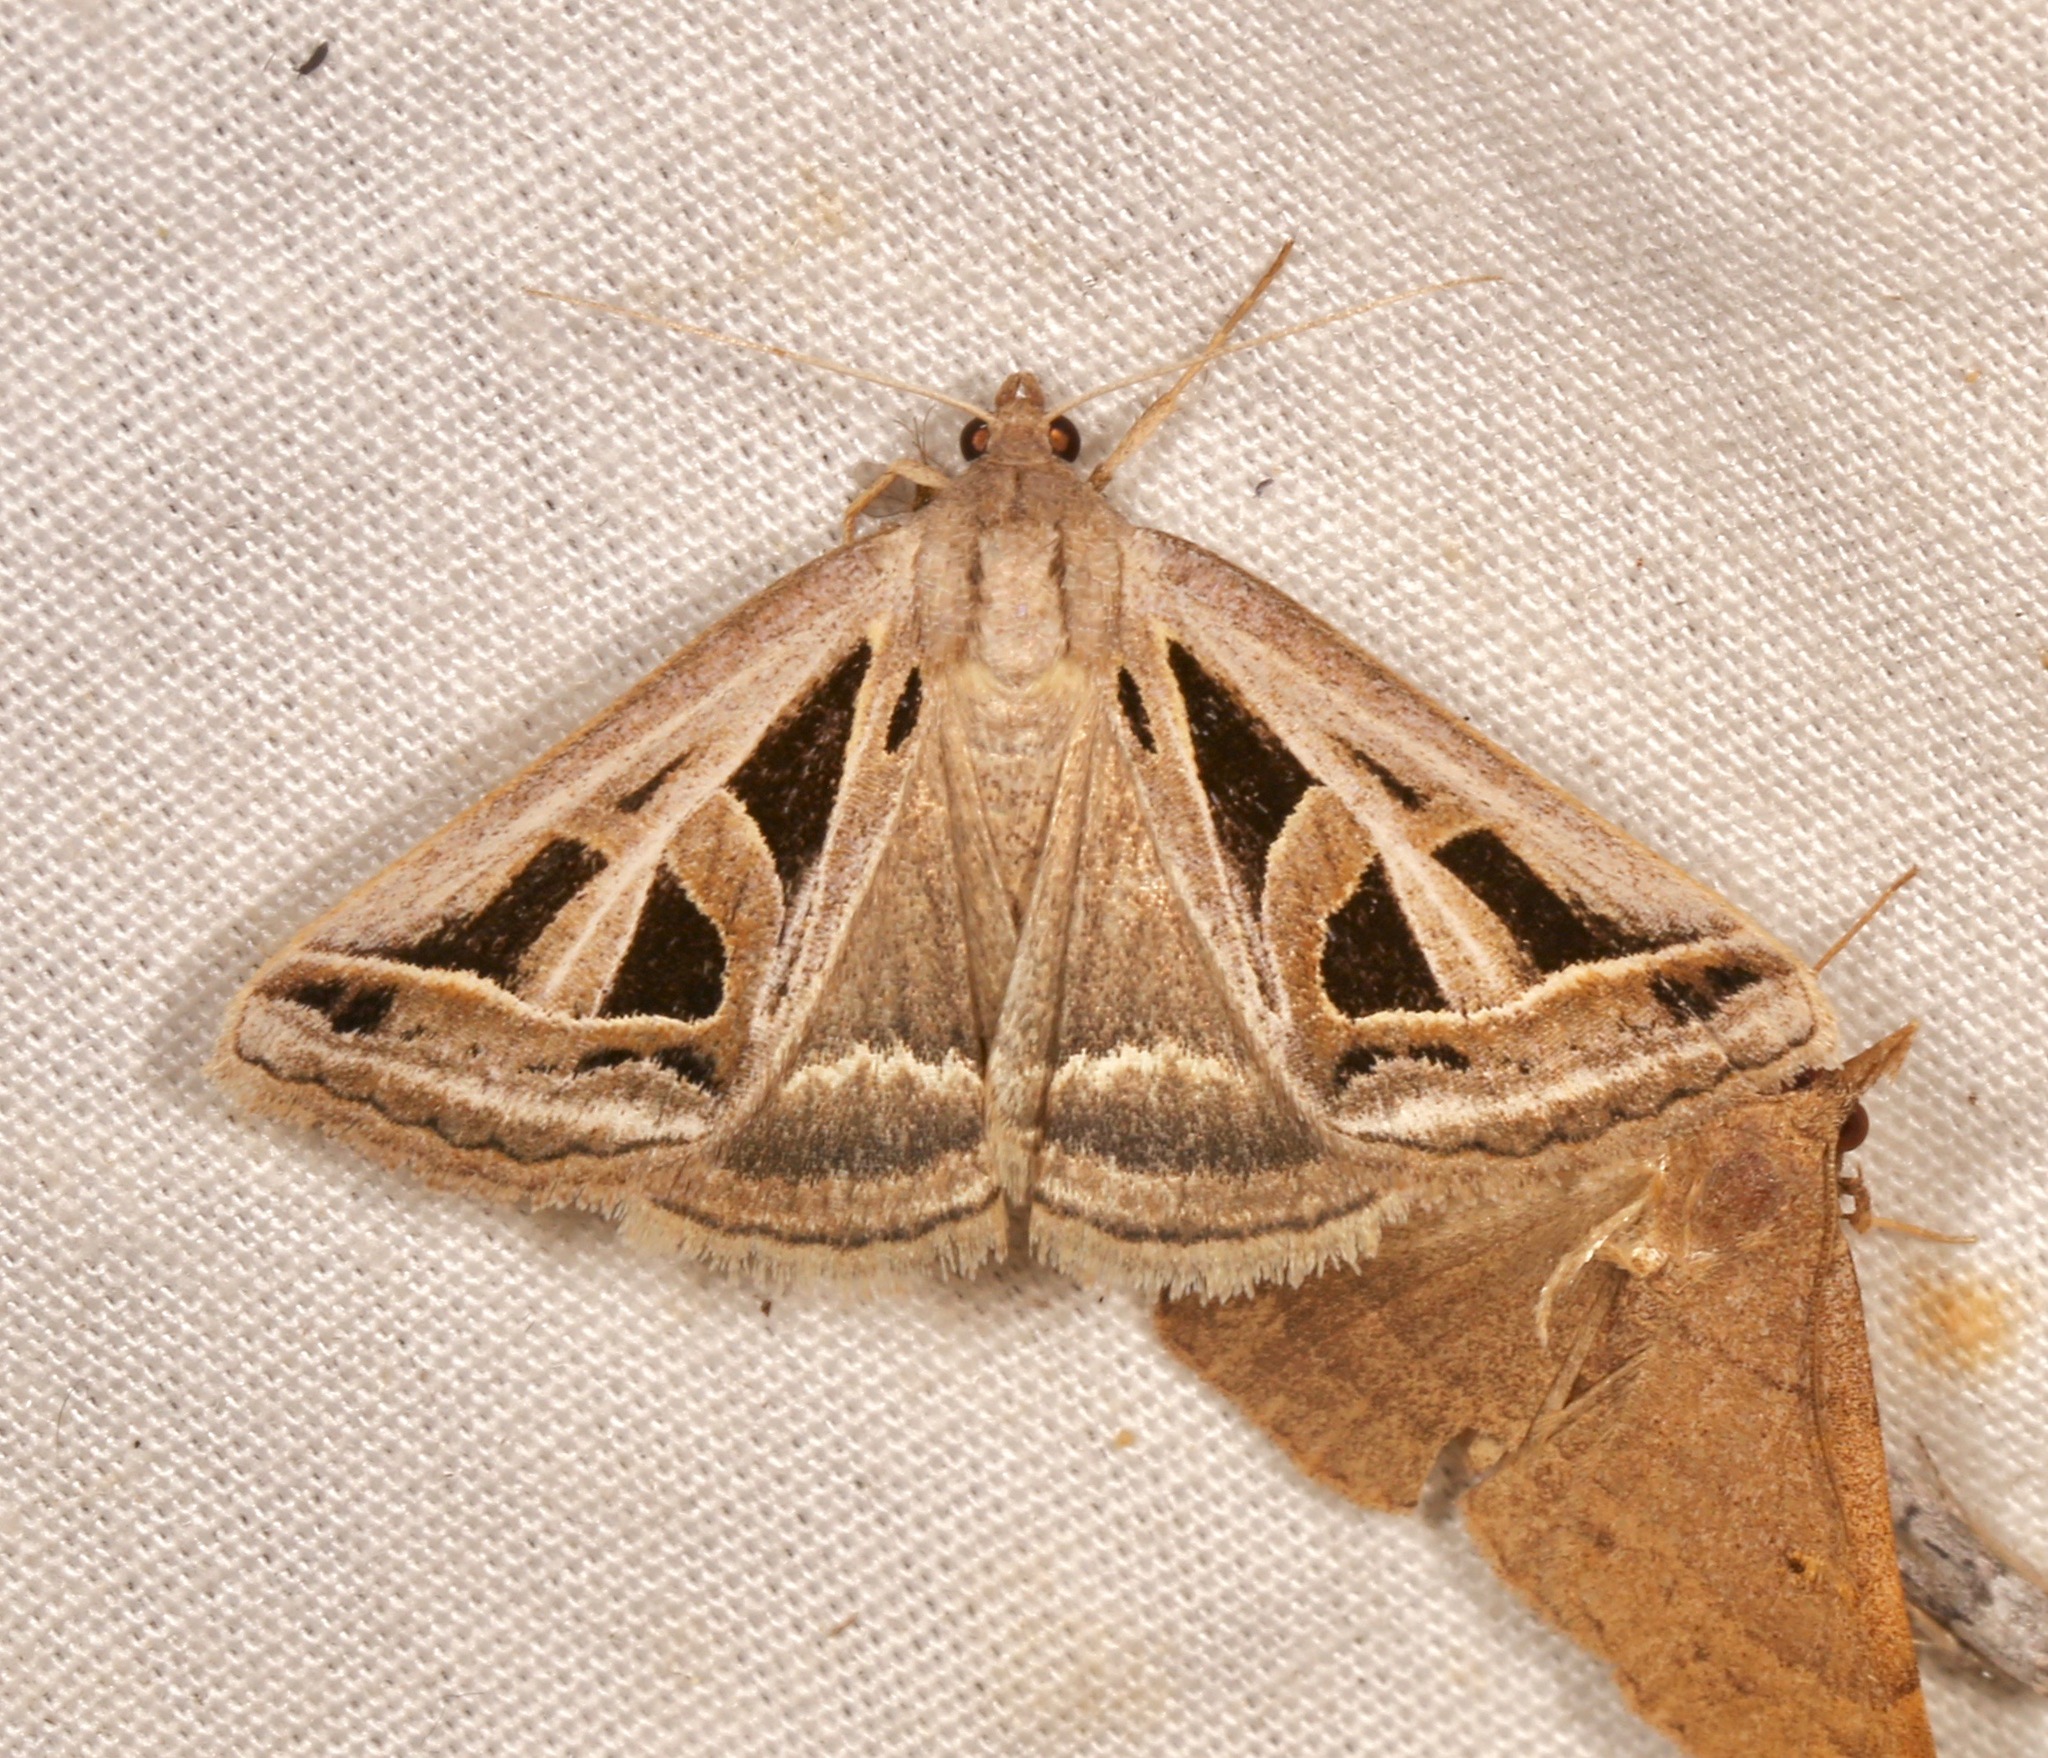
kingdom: Animalia
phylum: Arthropoda
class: Insecta
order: Lepidoptera
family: Erebidae
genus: Callistege
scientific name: Callistege diagonalis
